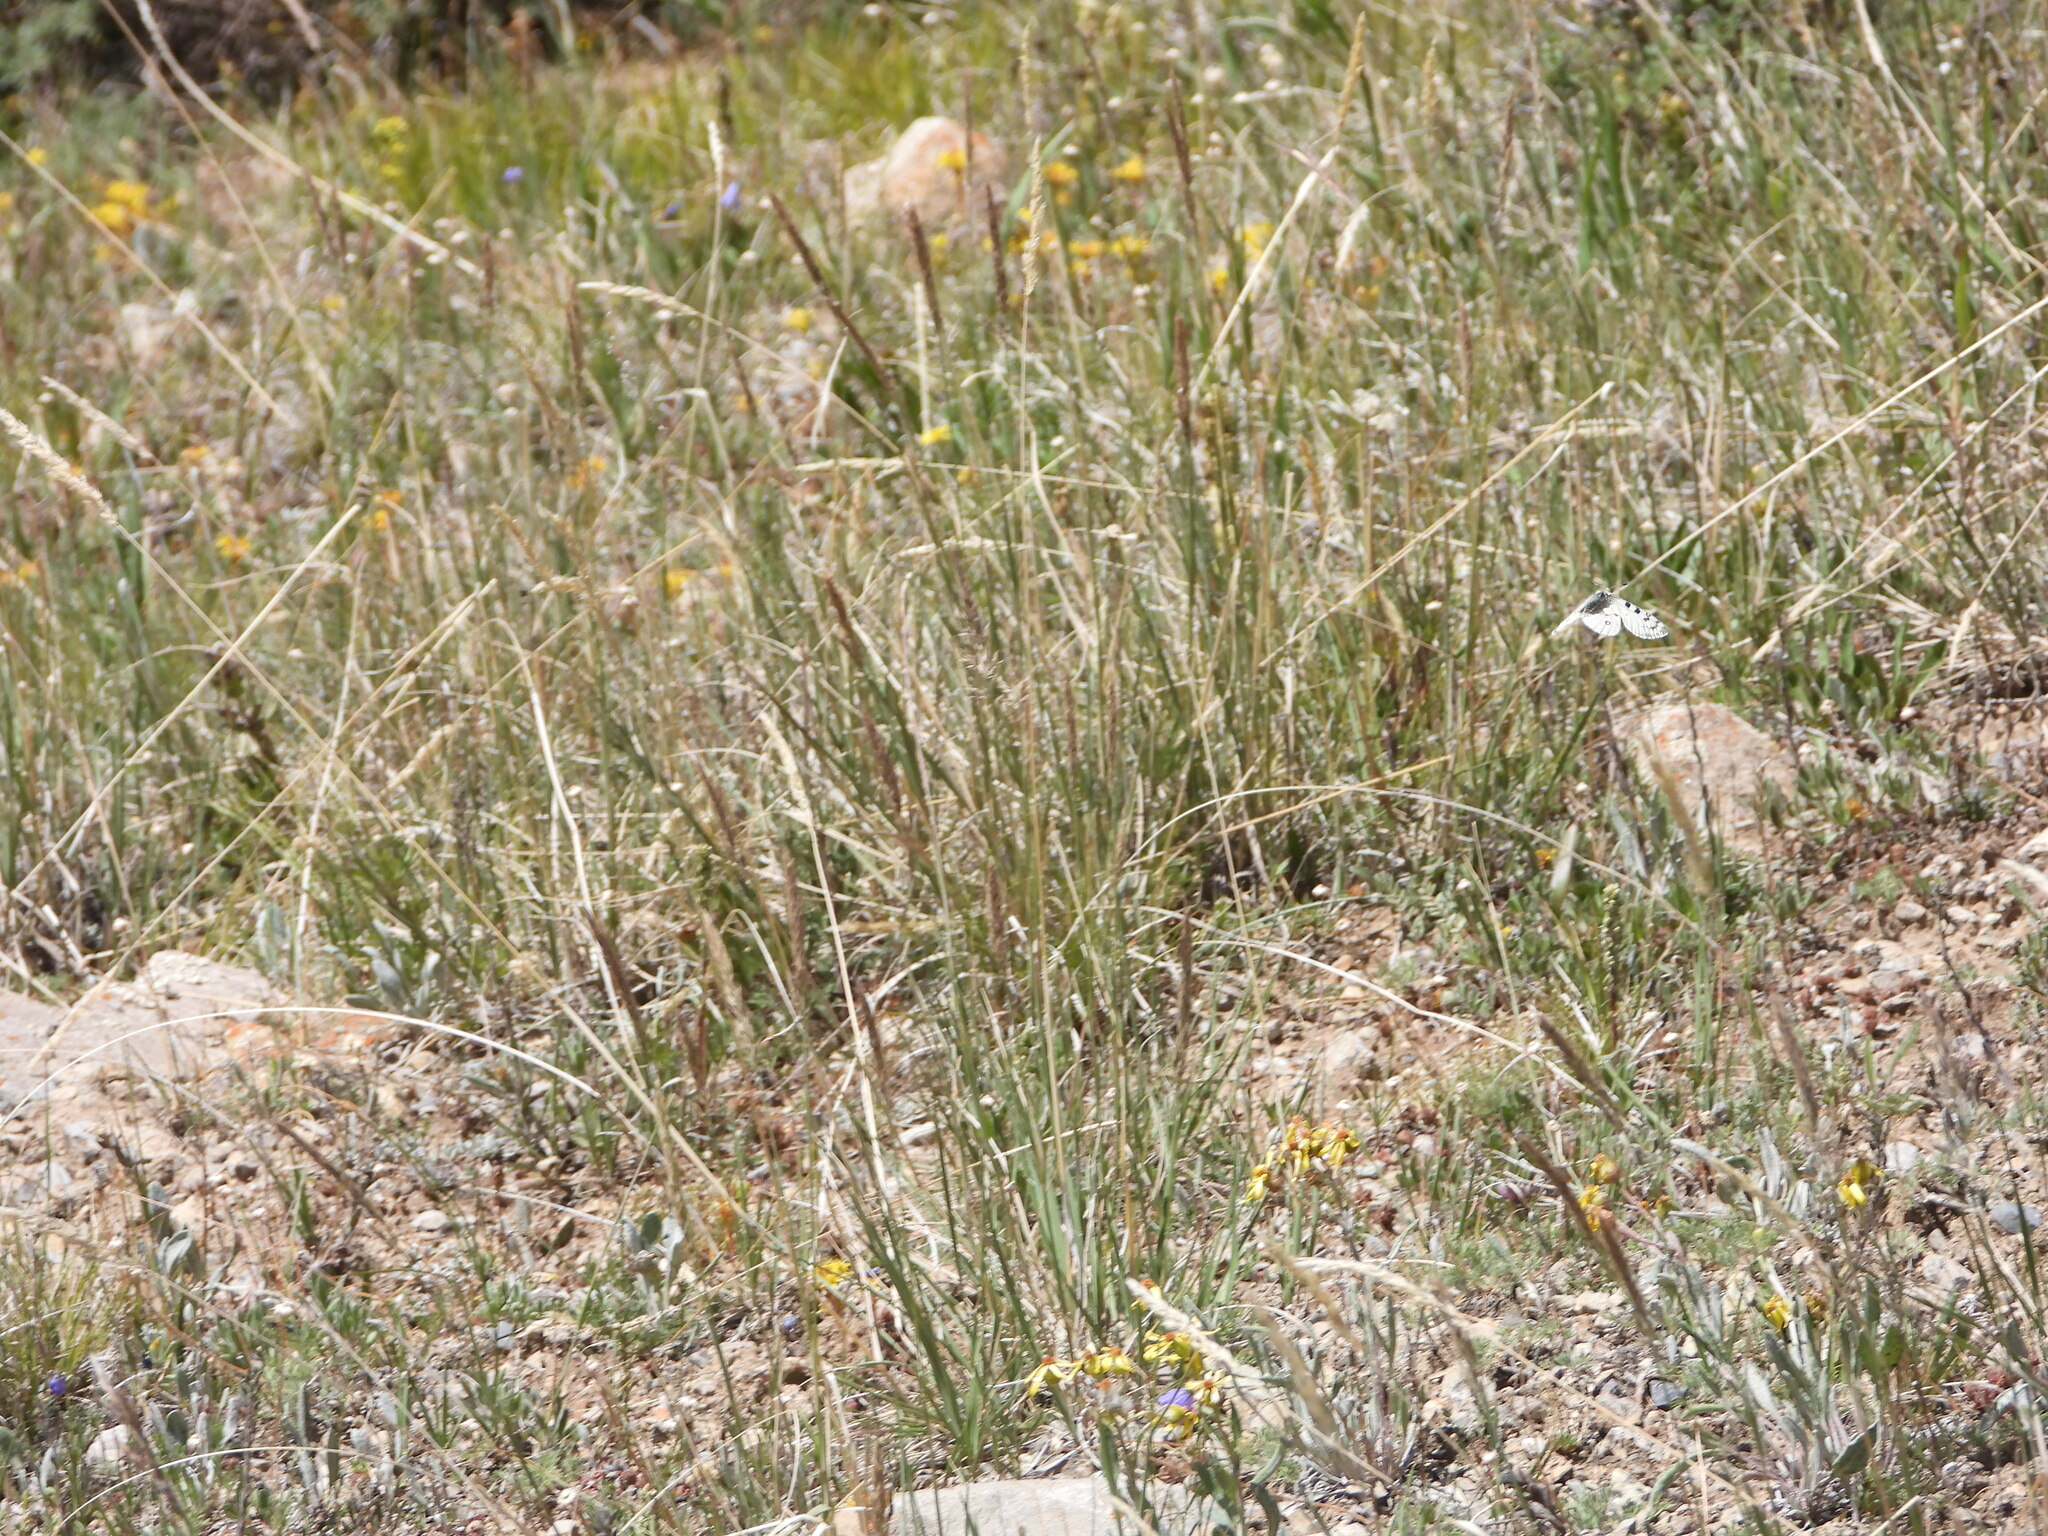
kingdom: Animalia
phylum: Arthropoda
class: Insecta
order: Lepidoptera
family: Papilionidae
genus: Parnassius
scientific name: Parnassius smintheus
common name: Mountain parnassian
